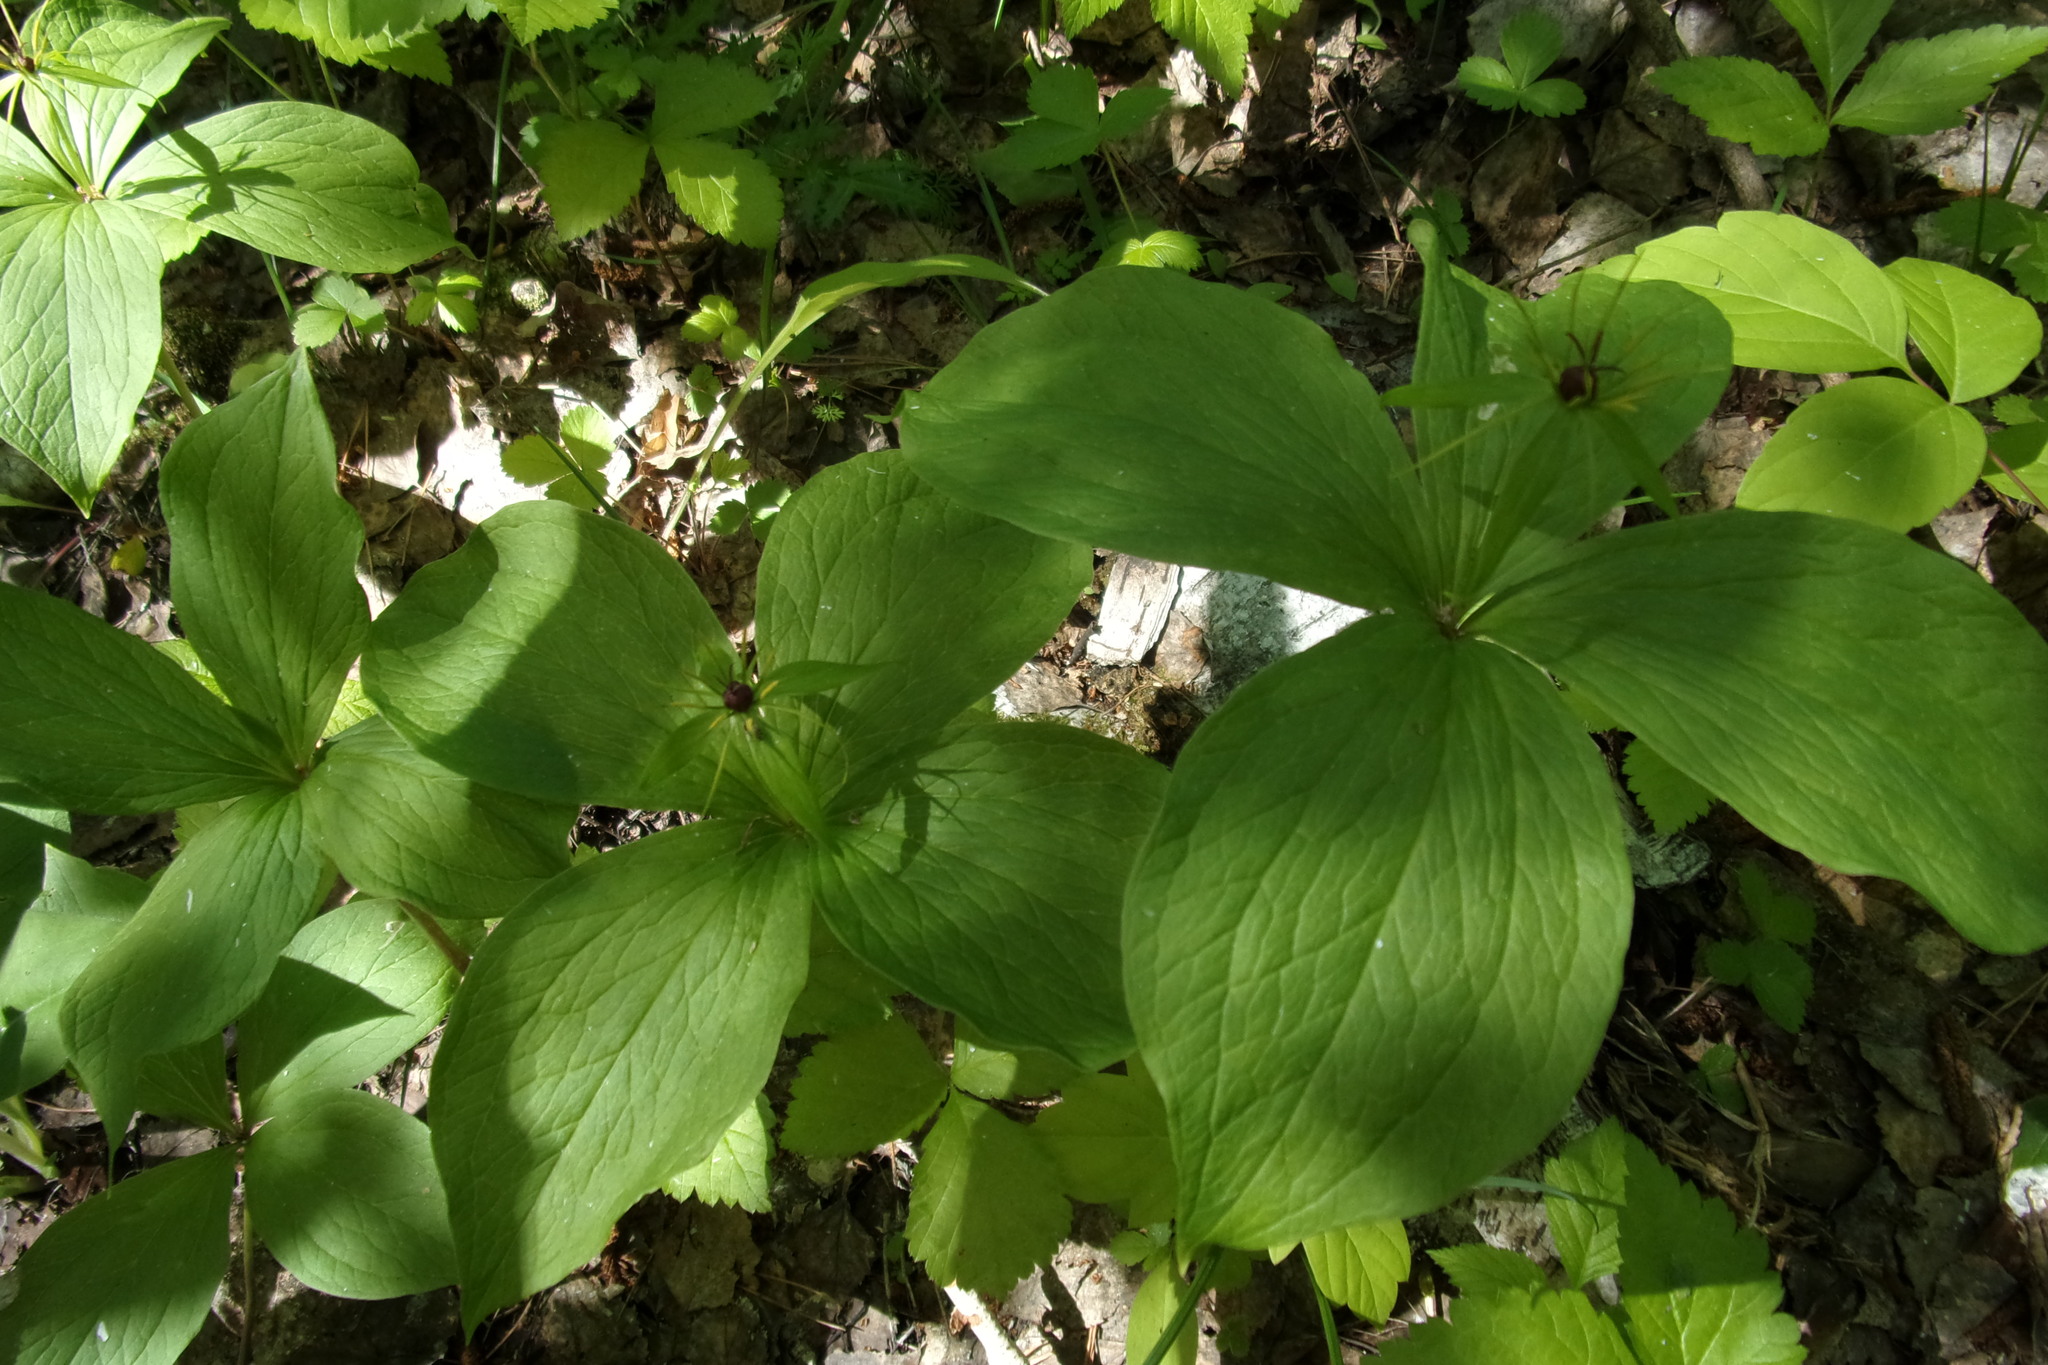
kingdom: Plantae
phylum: Tracheophyta
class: Liliopsida
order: Liliales
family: Melanthiaceae
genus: Paris
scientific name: Paris quadrifolia
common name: Herb-paris
